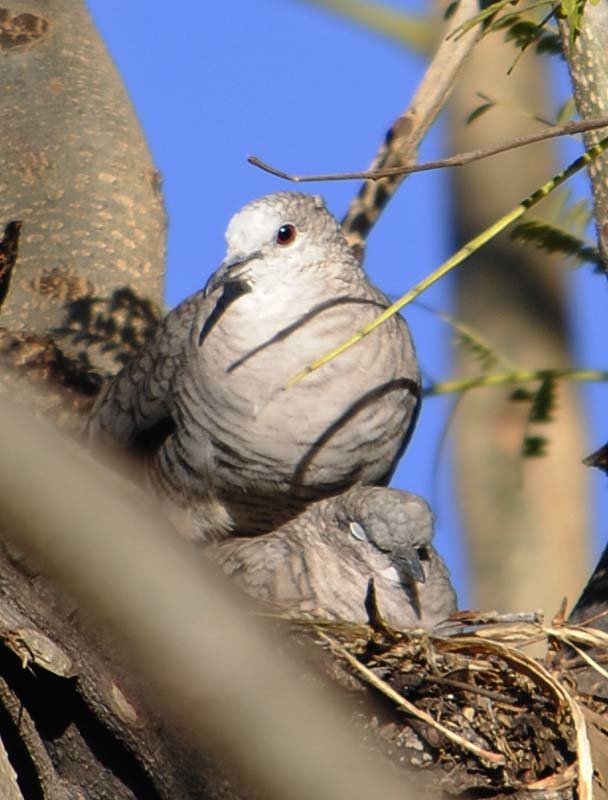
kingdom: Animalia
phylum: Chordata
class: Aves
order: Columbiformes
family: Columbidae
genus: Columbina
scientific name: Columbina inca
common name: Inca dove
